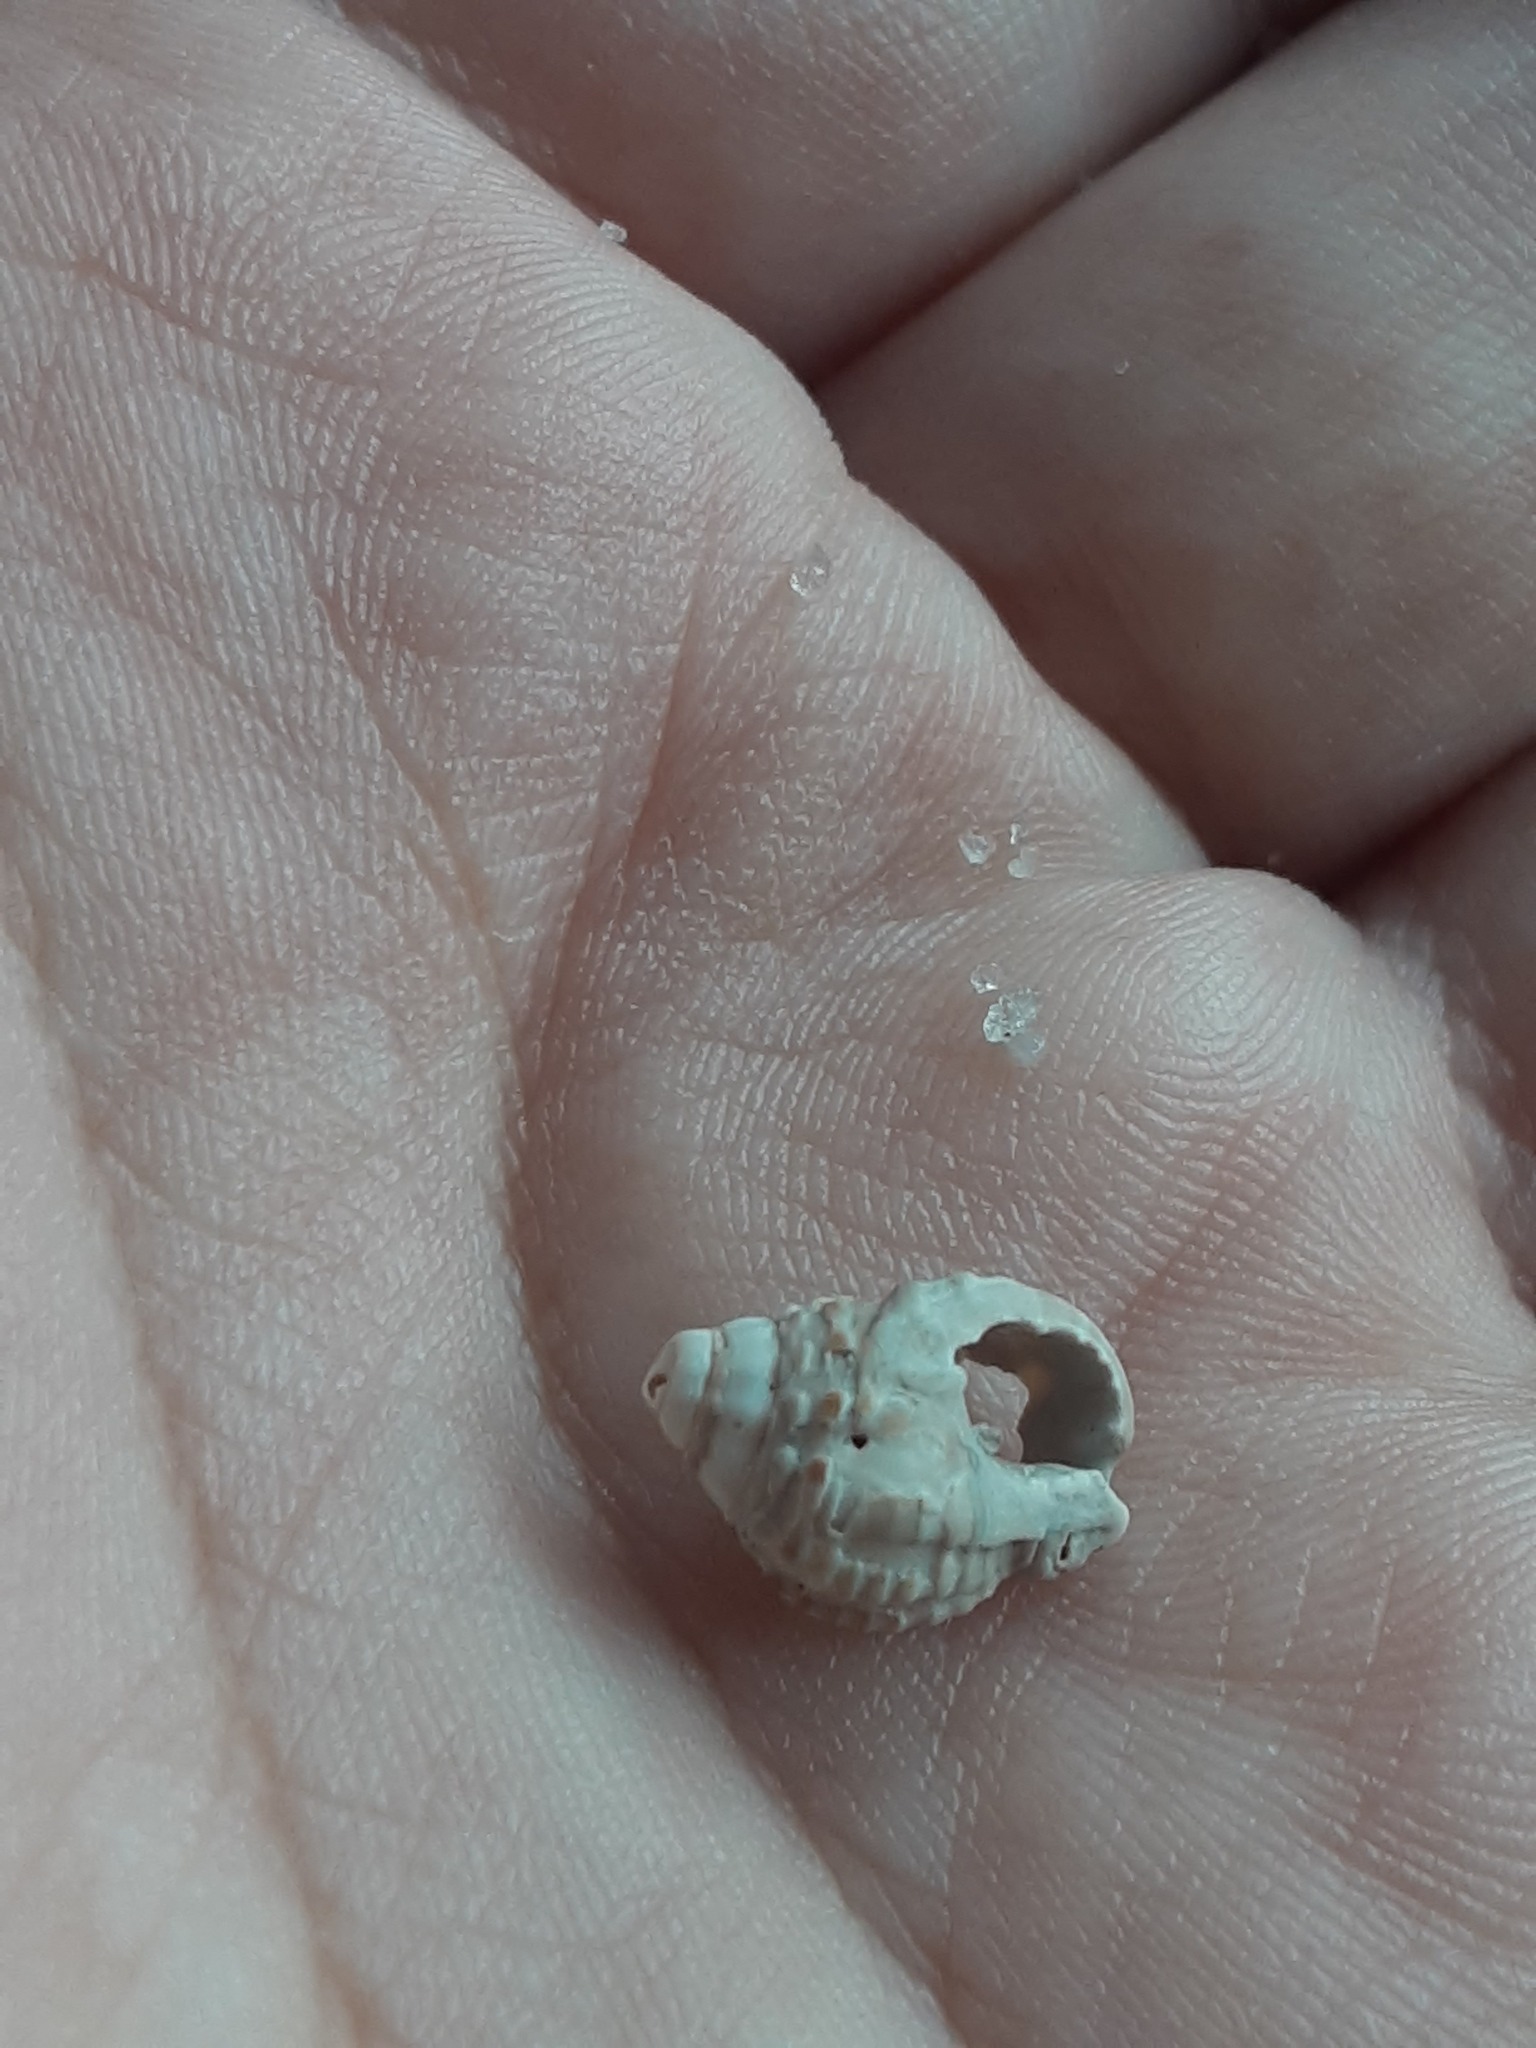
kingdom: Animalia
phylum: Mollusca
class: Gastropoda
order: Neogastropoda
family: Nassariidae
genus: Phrontis
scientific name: Phrontis vibex
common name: Bruised nassa
